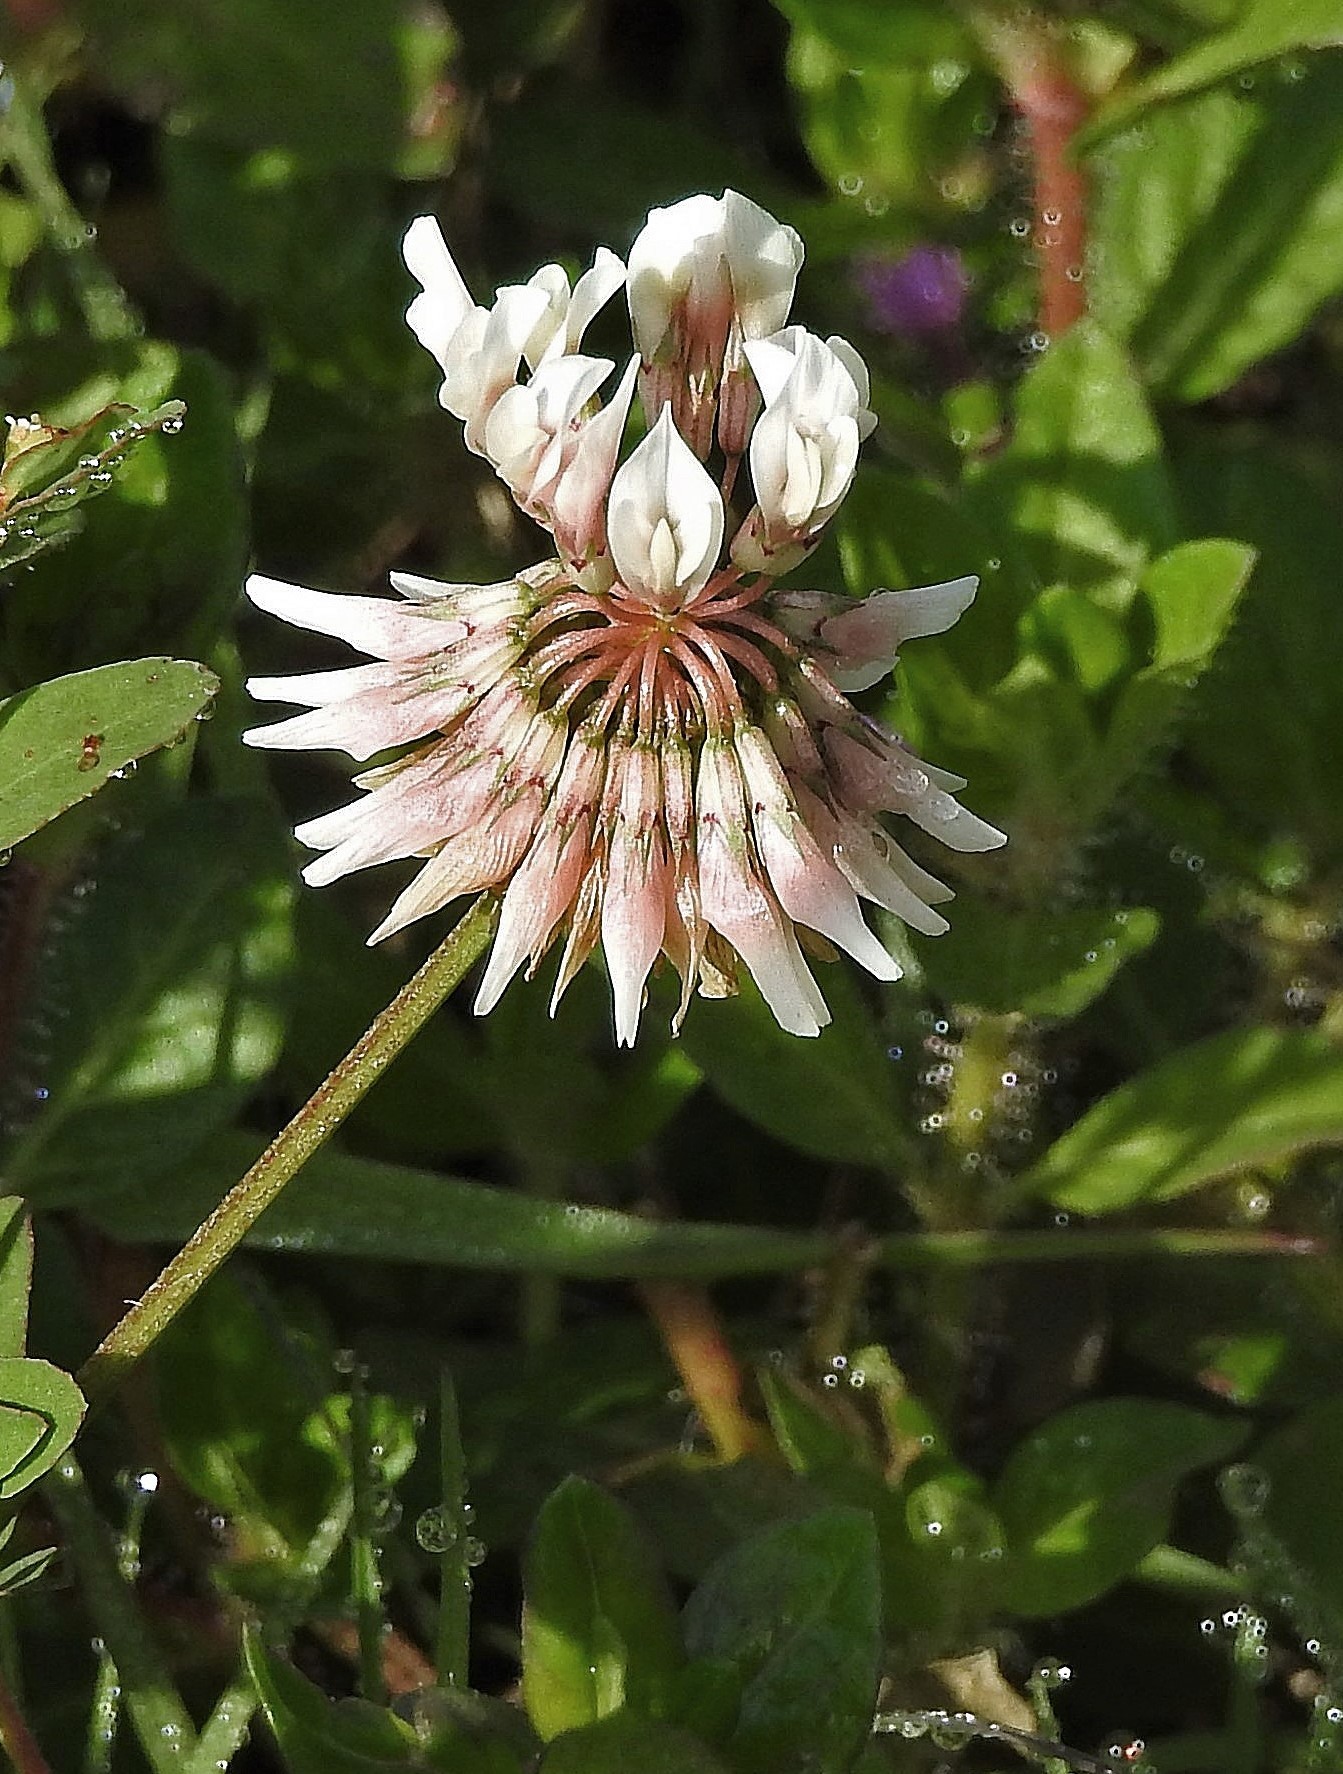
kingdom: Plantae
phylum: Tracheophyta
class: Magnoliopsida
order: Fabales
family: Fabaceae
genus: Trifolium
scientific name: Trifolium repens
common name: White clover
